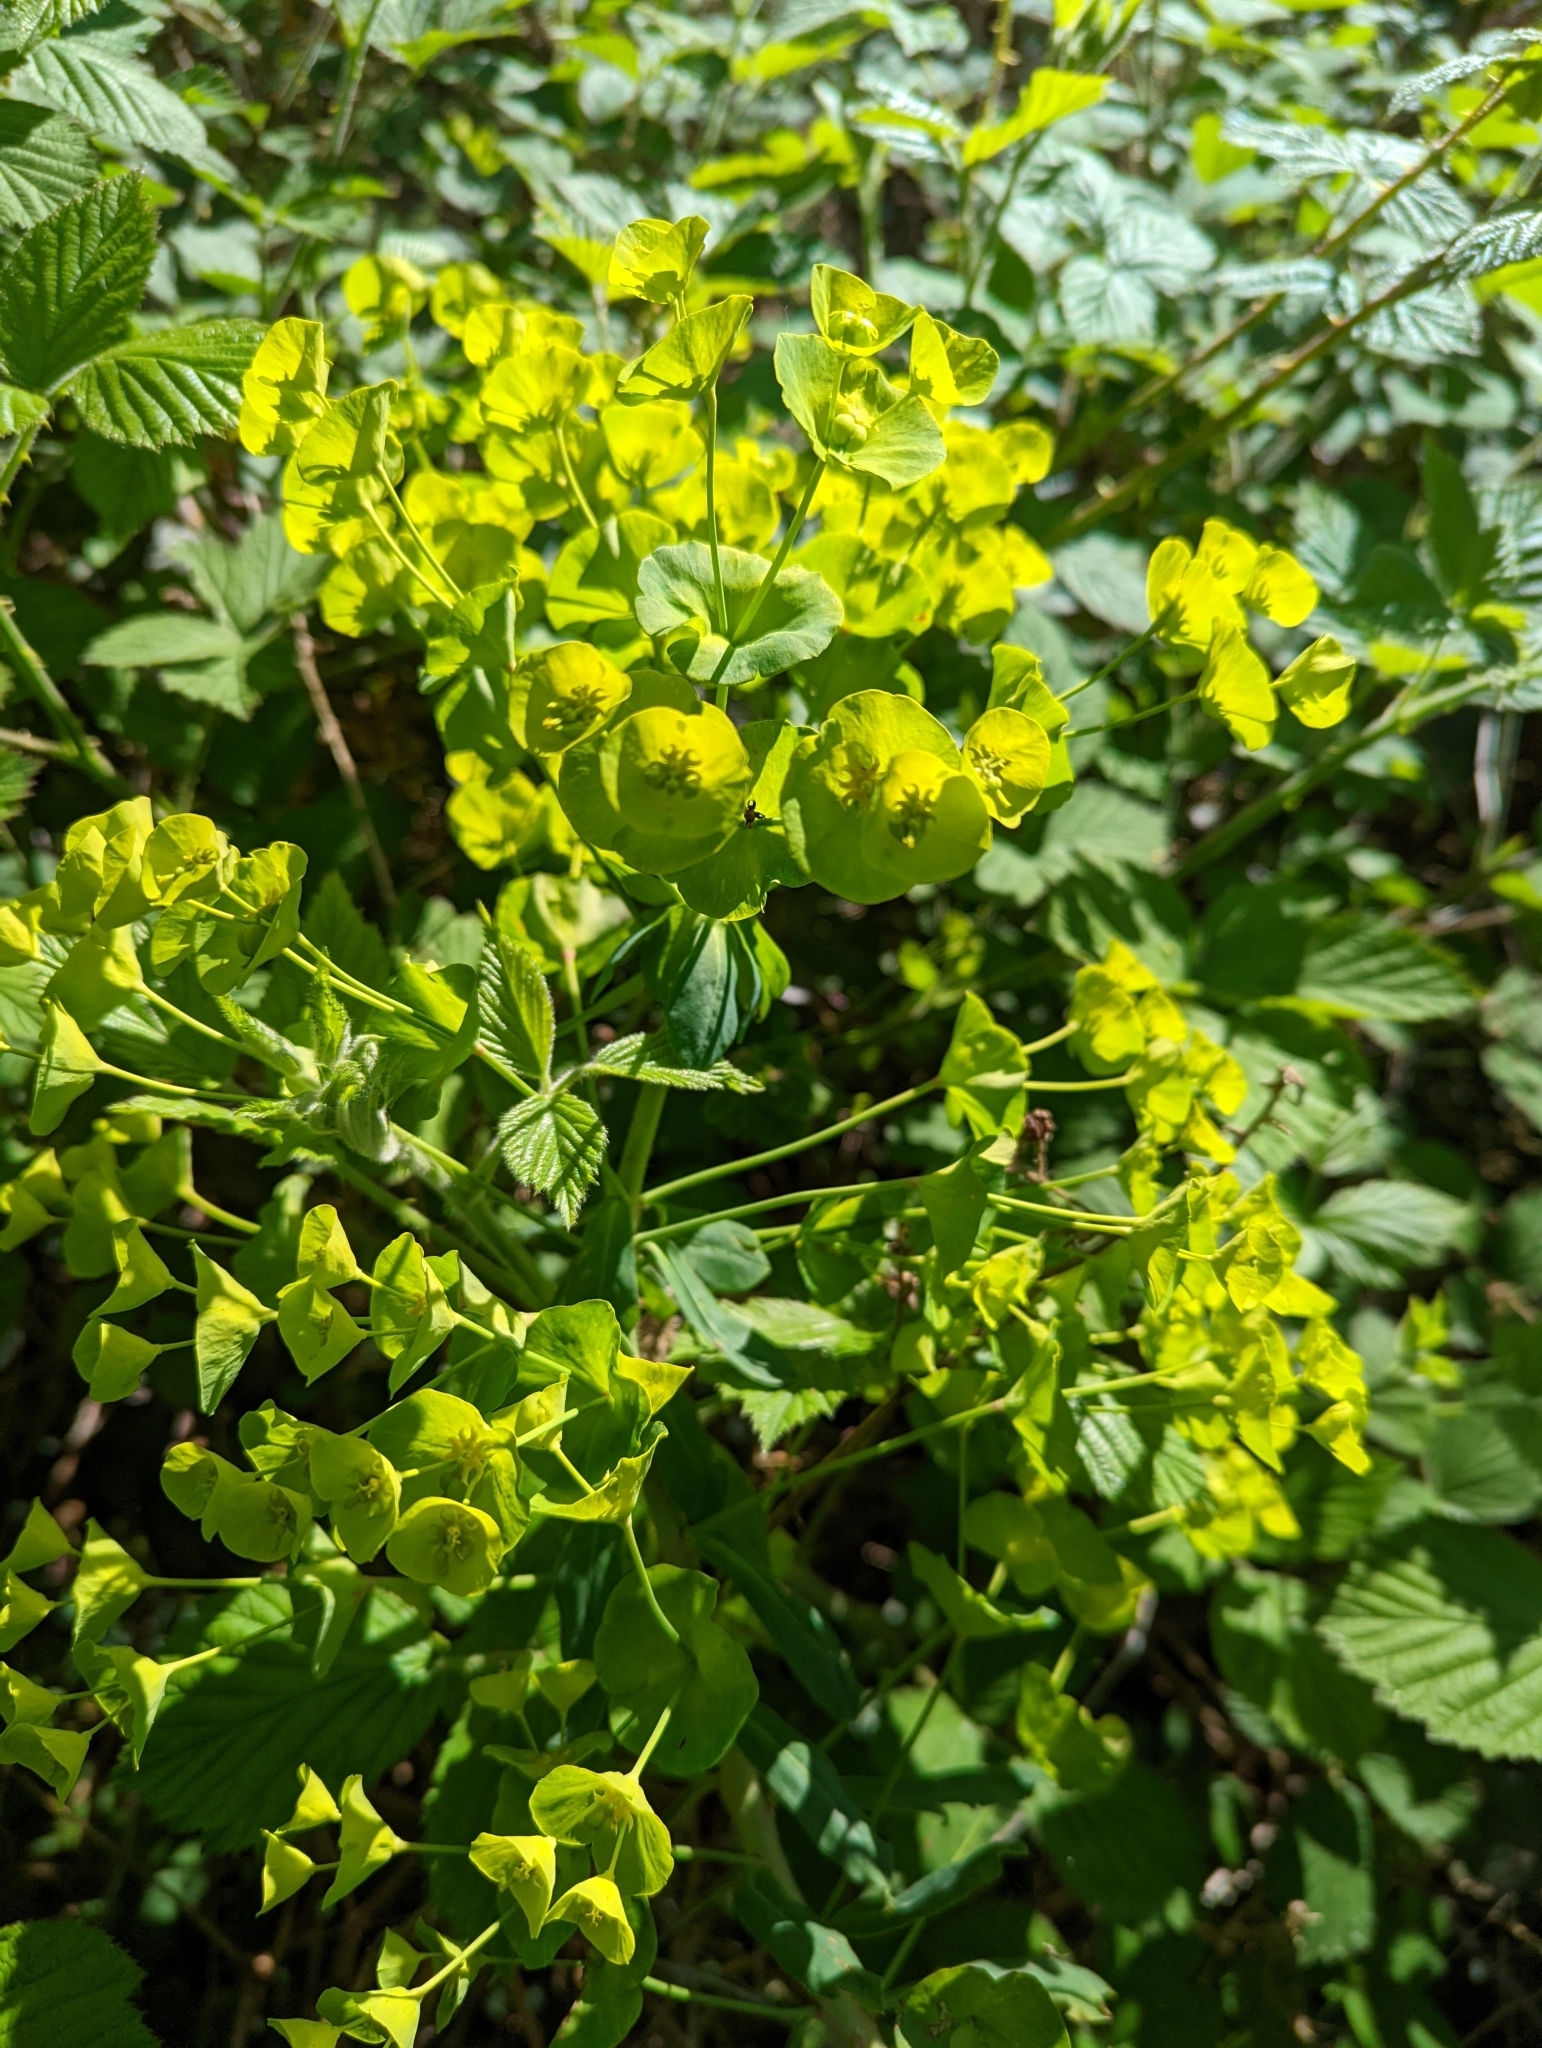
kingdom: Plantae
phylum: Tracheophyta
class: Magnoliopsida
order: Malpighiales
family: Euphorbiaceae
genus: Euphorbia
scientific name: Euphorbia amygdaloides
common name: Wood spurge
